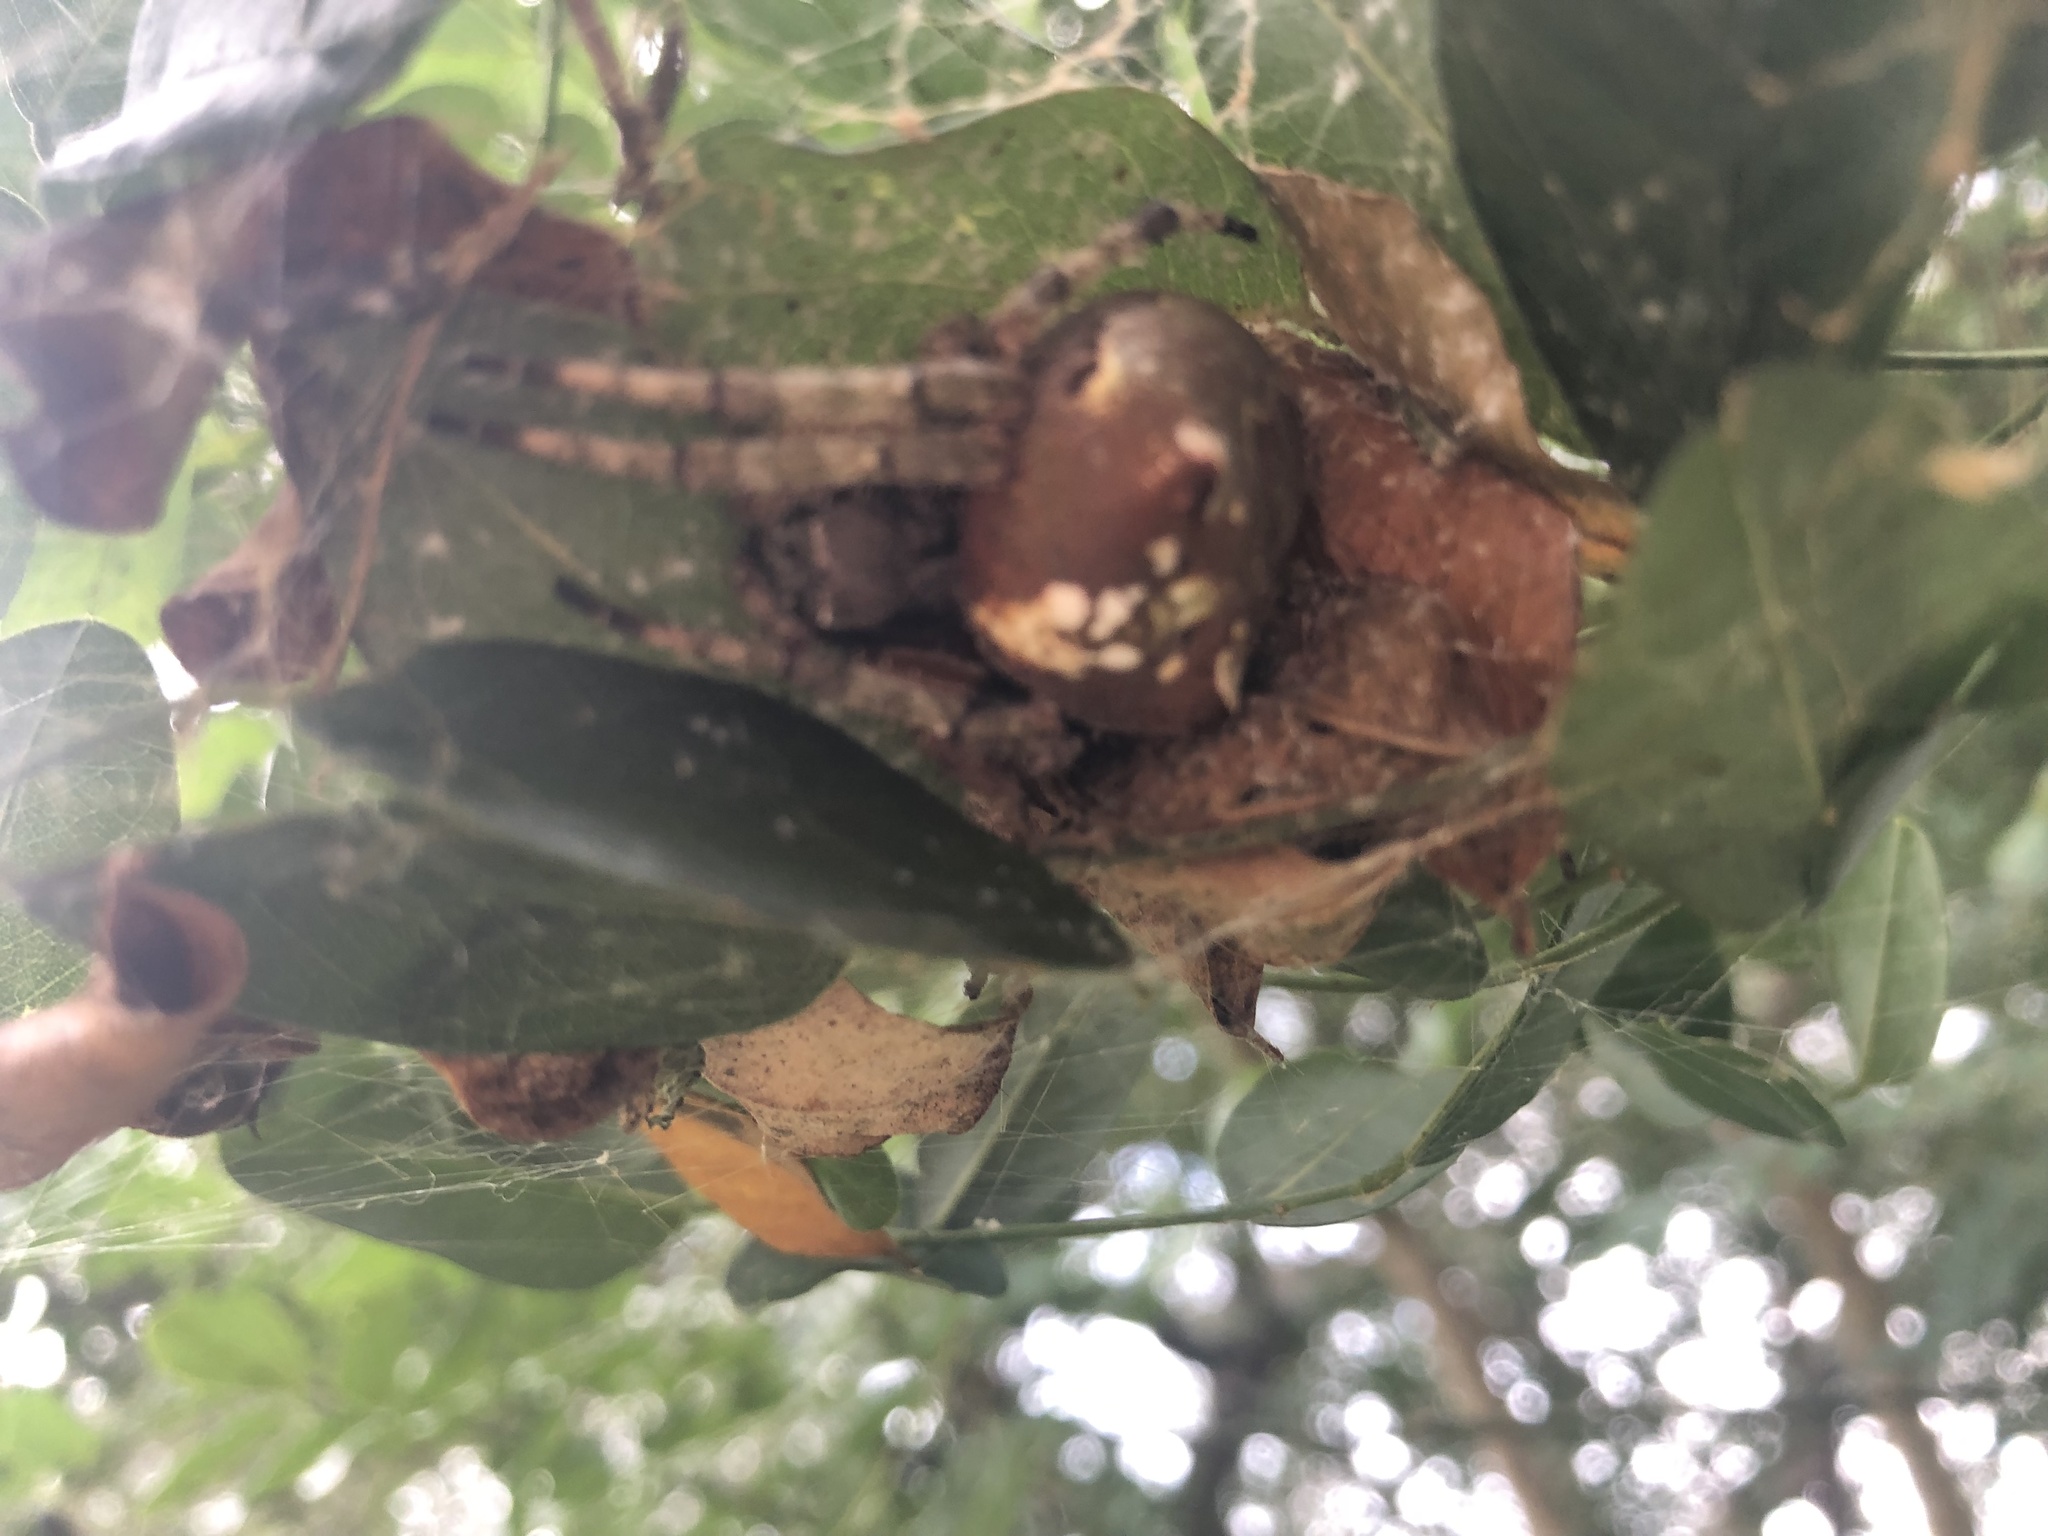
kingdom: Animalia
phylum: Arthropoda
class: Arachnida
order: Araneae
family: Araneidae
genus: Araneus
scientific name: Araneus bicentenarius
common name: Giant lichen orbweaver
